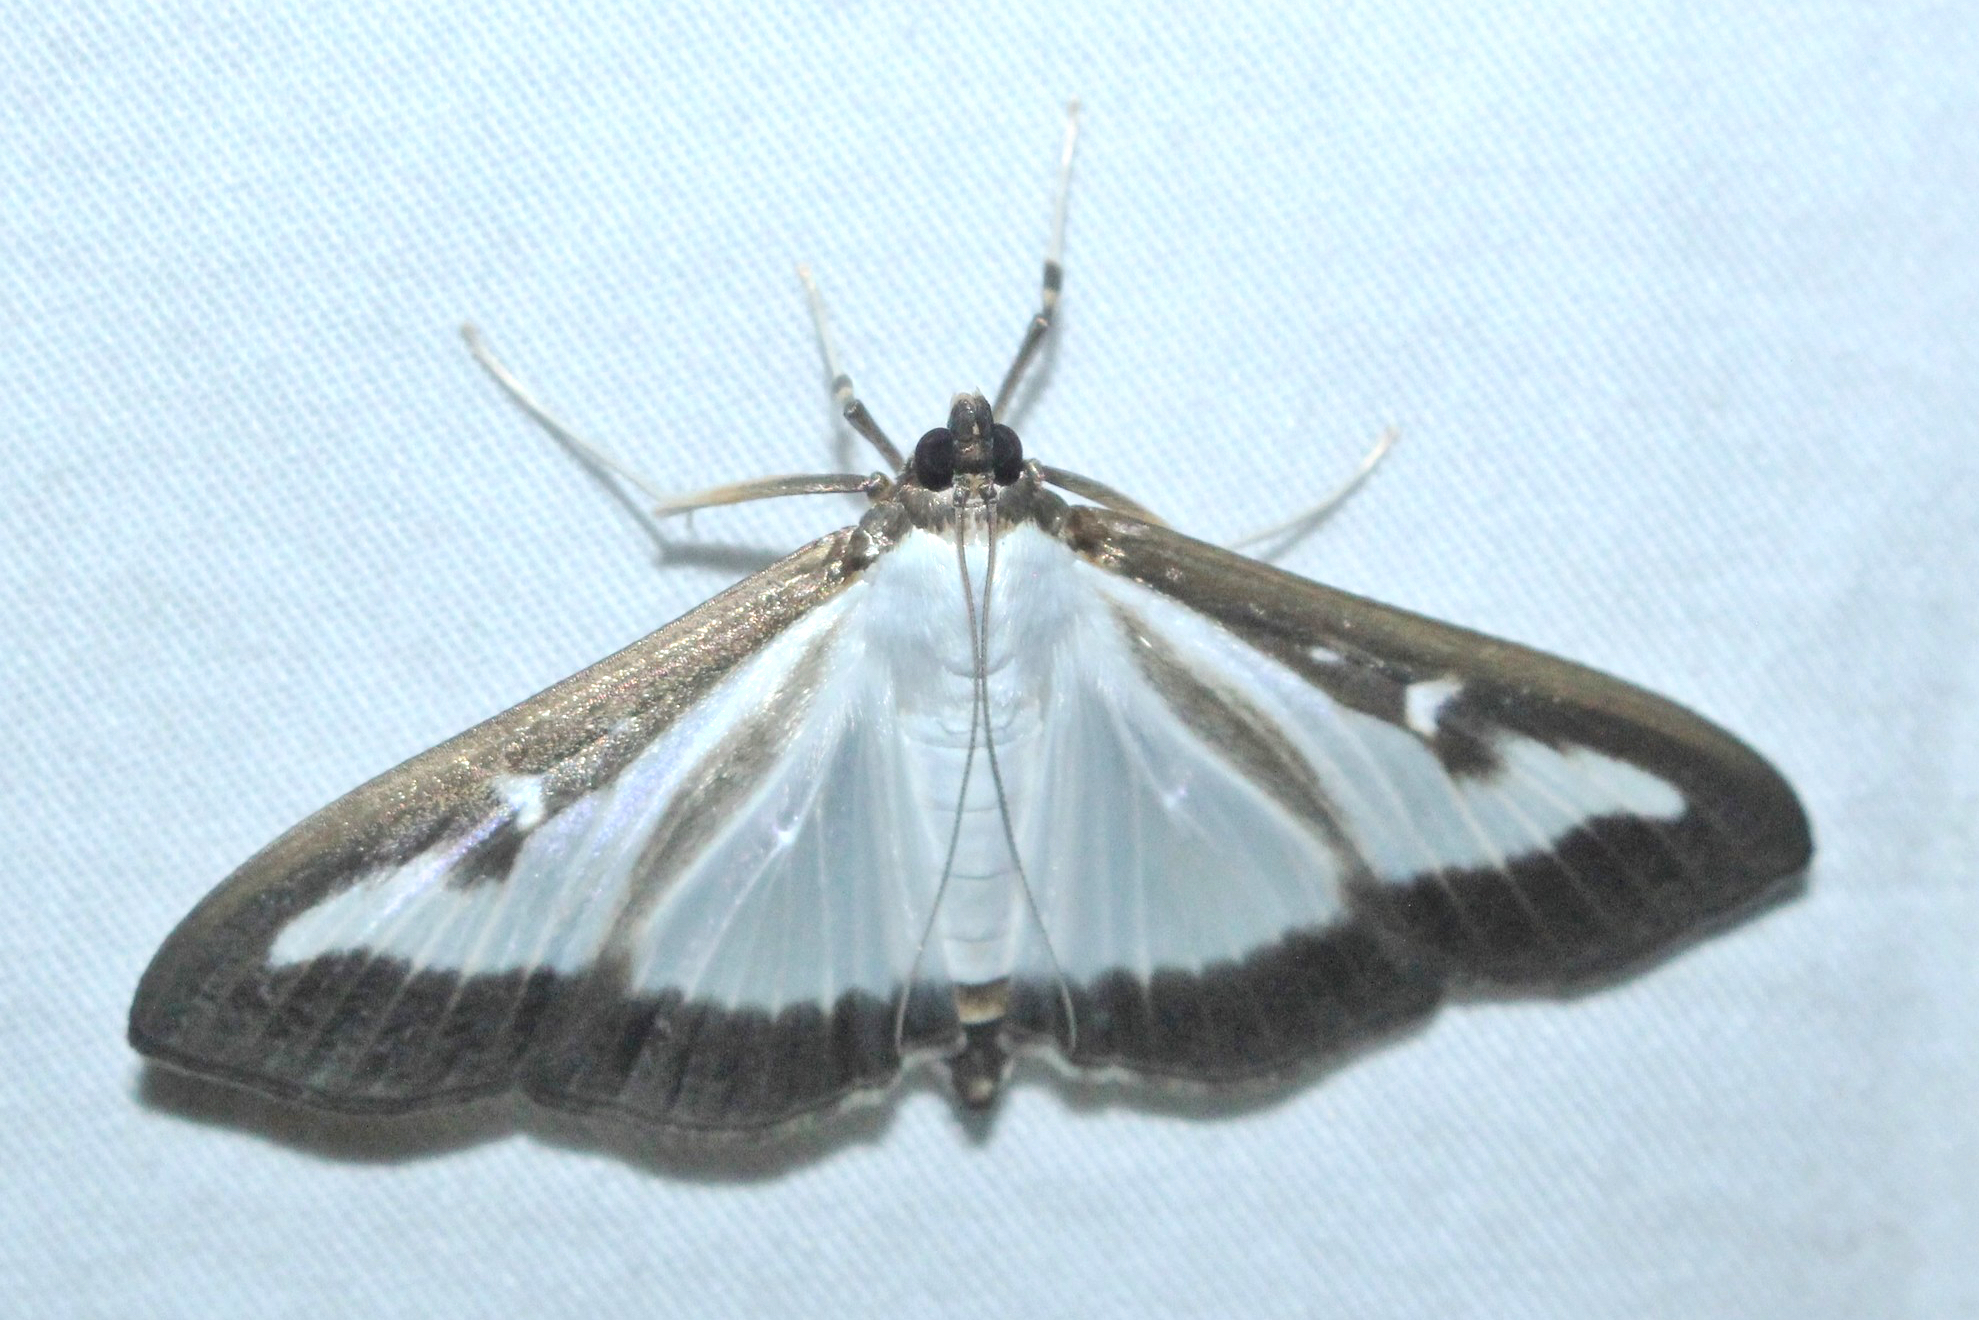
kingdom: Animalia
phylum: Arthropoda
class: Insecta
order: Lepidoptera
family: Crambidae
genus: Cydalima
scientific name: Cydalima perspectalis
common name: Box tree moth
